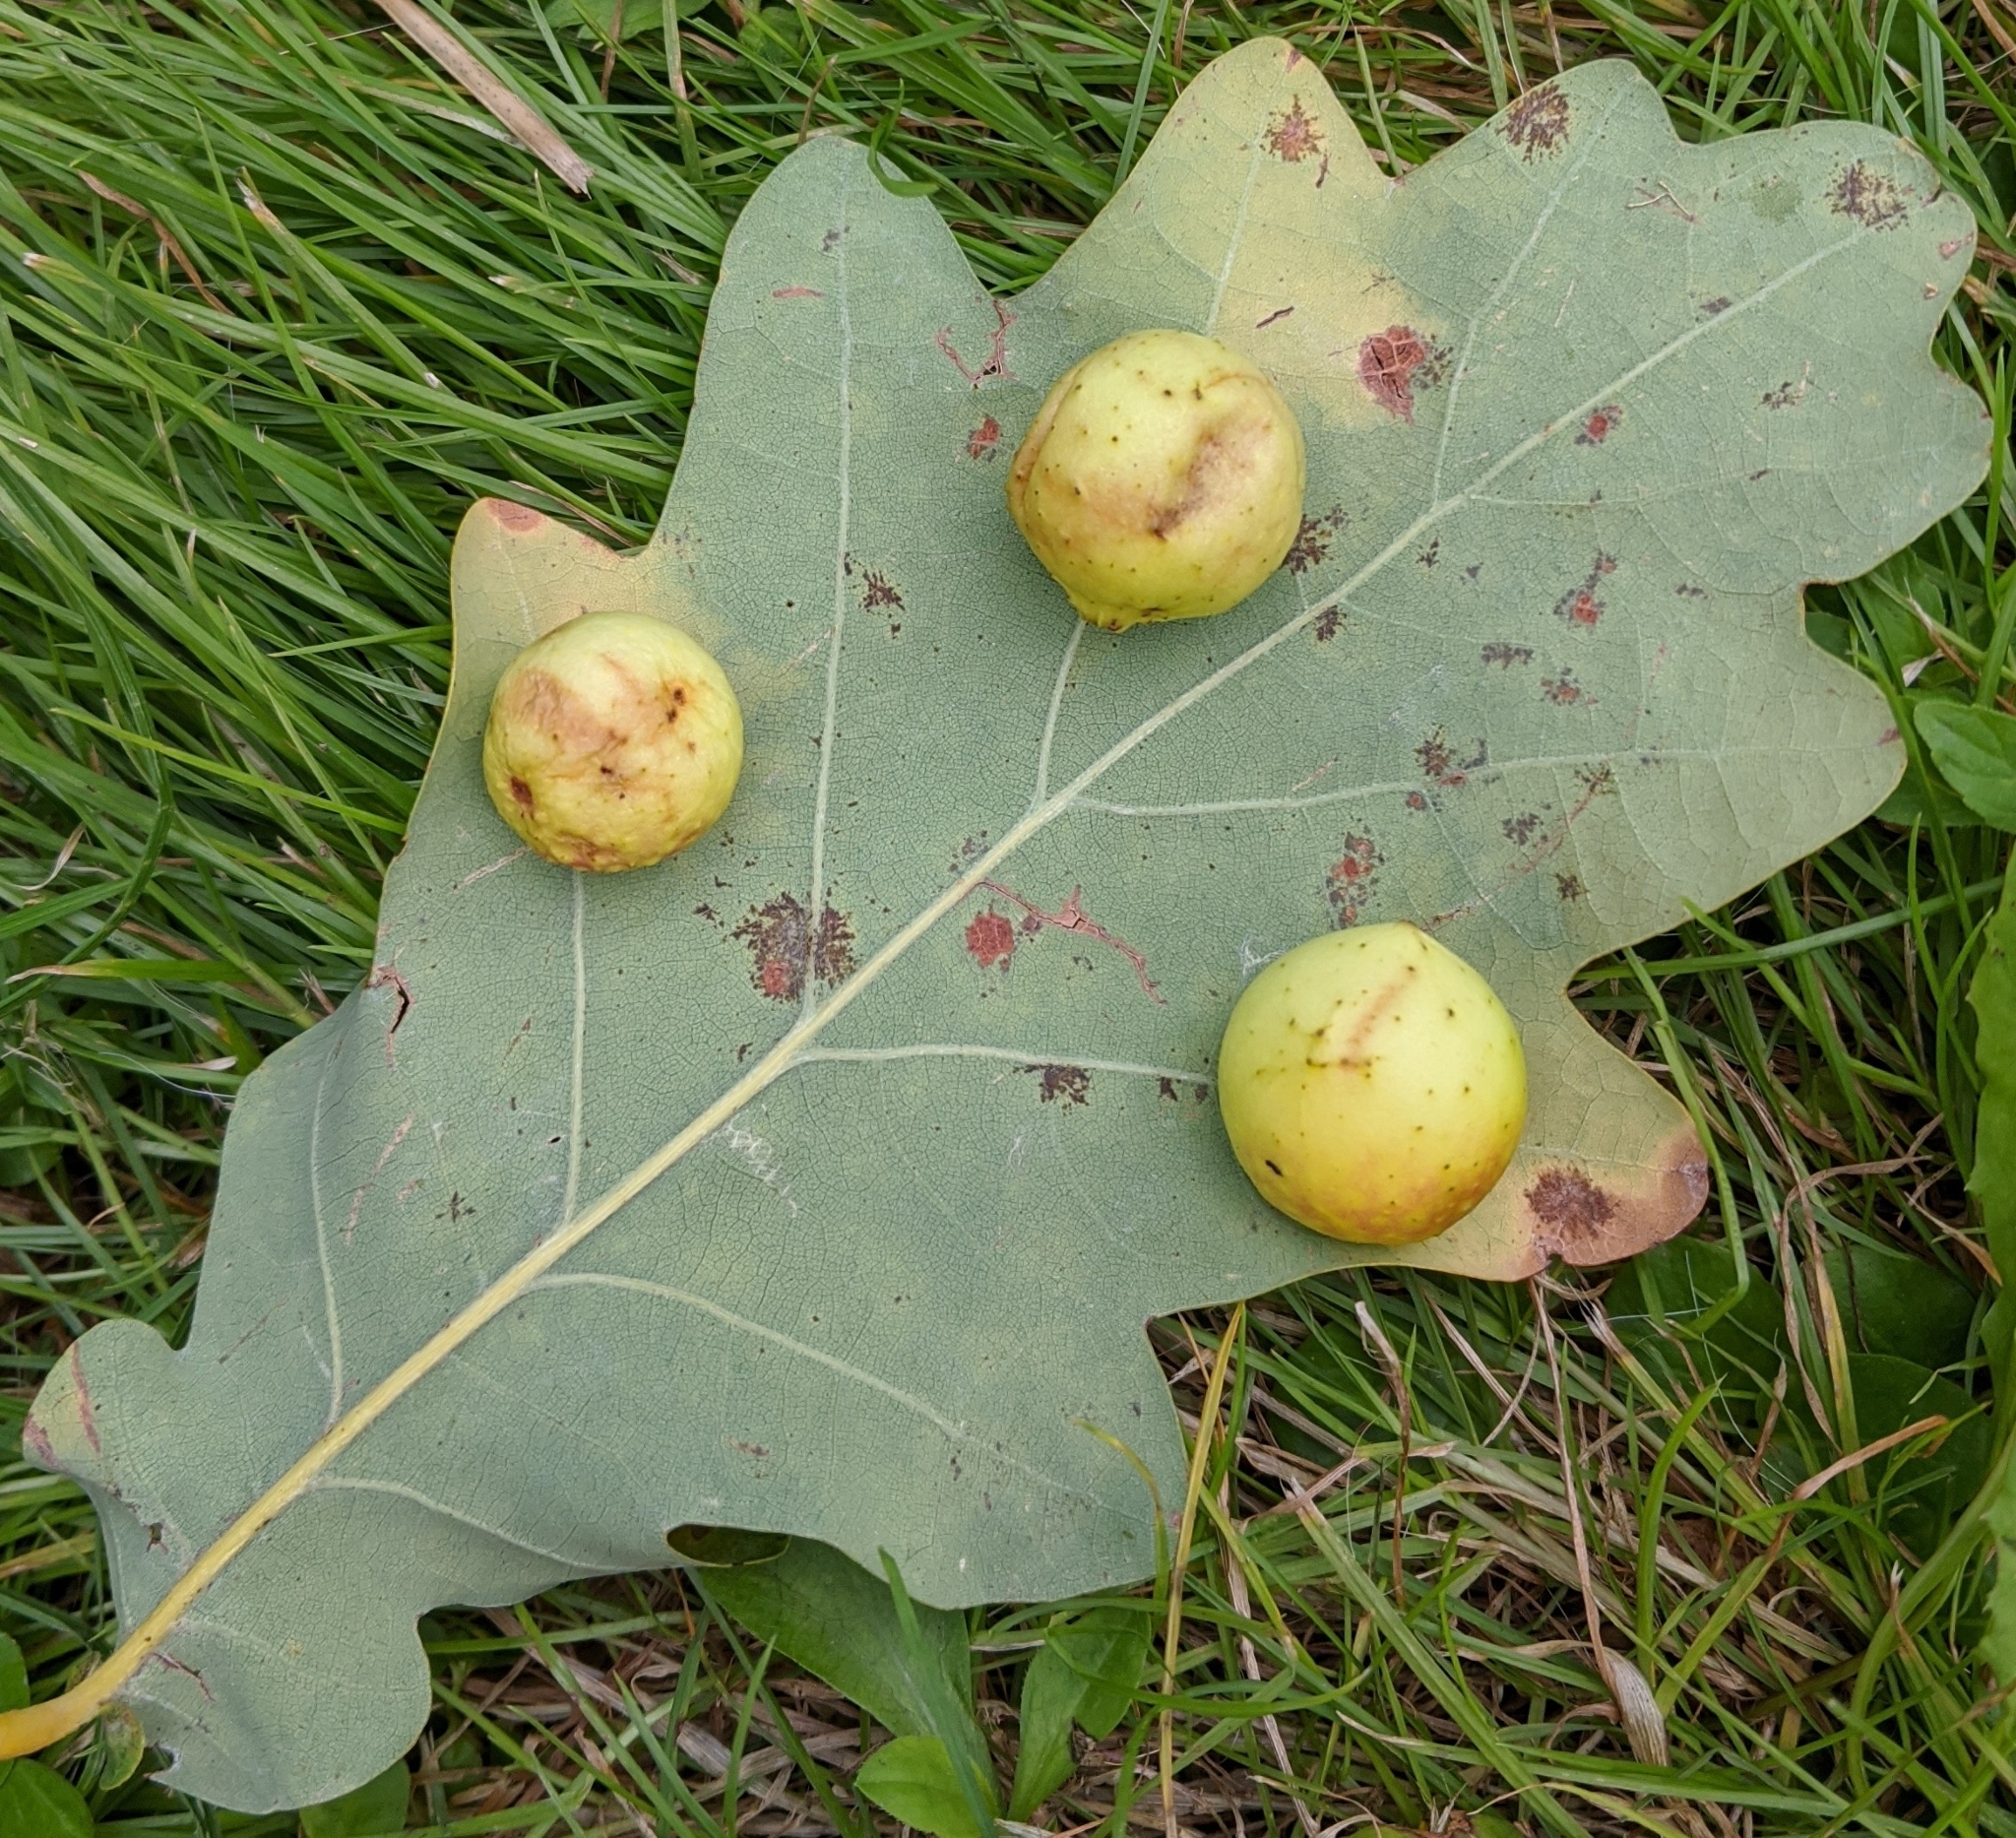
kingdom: Animalia
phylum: Arthropoda
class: Insecta
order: Hymenoptera
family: Cynipidae
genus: Cynips
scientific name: Cynips quercusfolii
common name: Cherry gall
